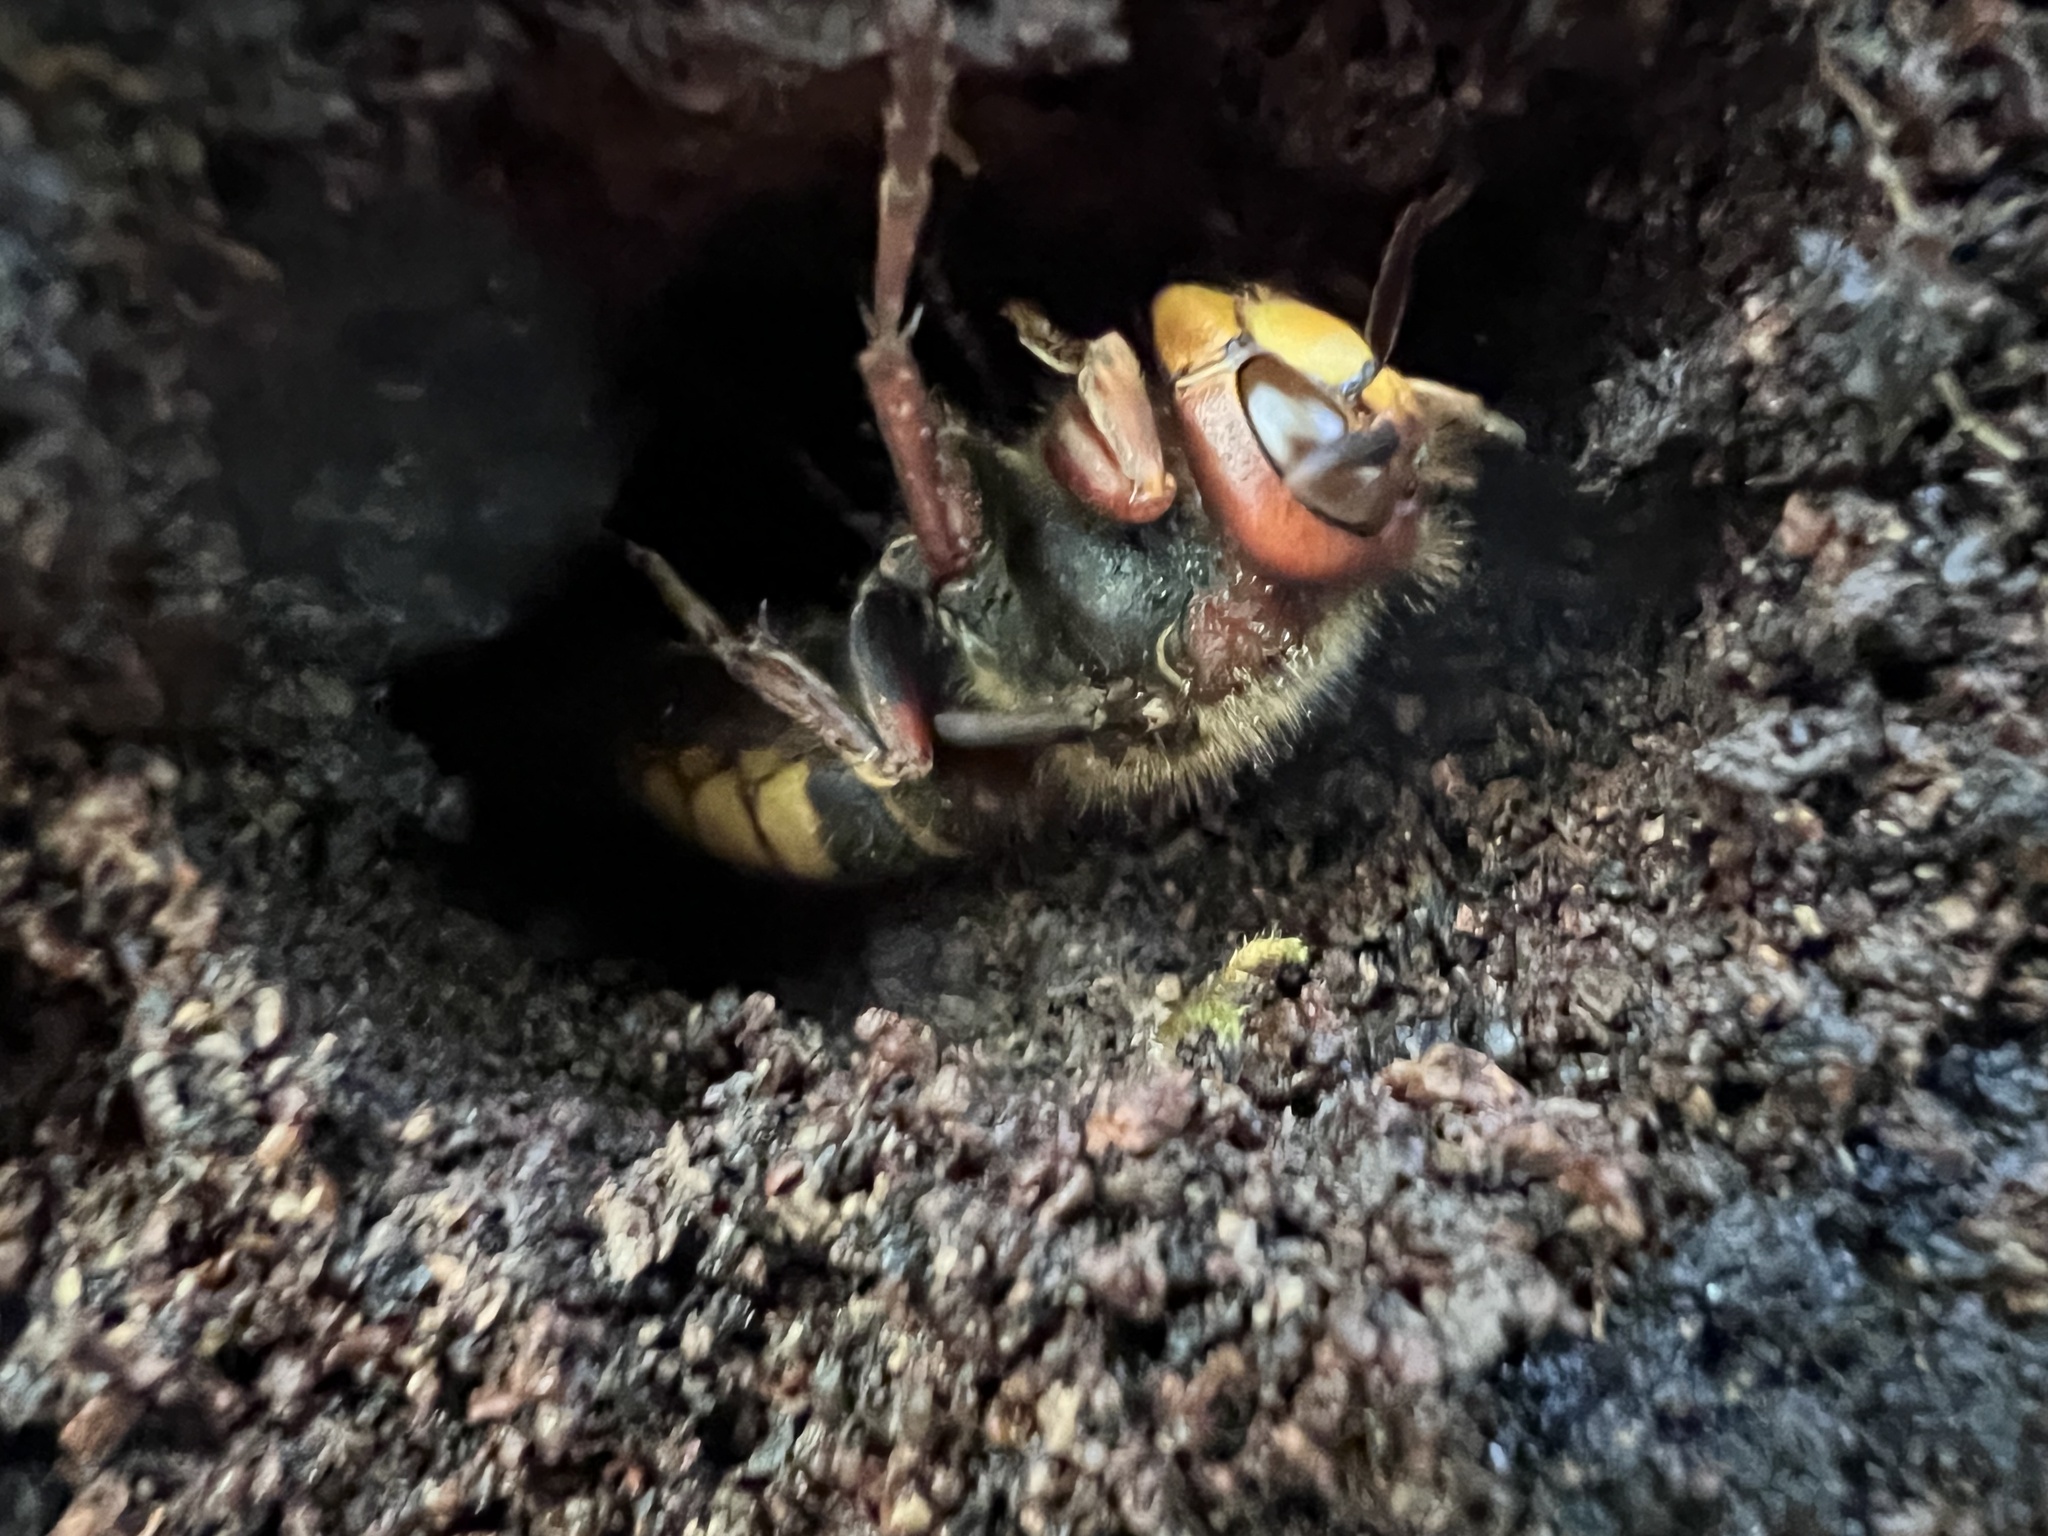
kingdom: Animalia
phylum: Arthropoda
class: Insecta
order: Hymenoptera
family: Vespidae
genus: Vespa
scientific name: Vespa crabro
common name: Hornet
